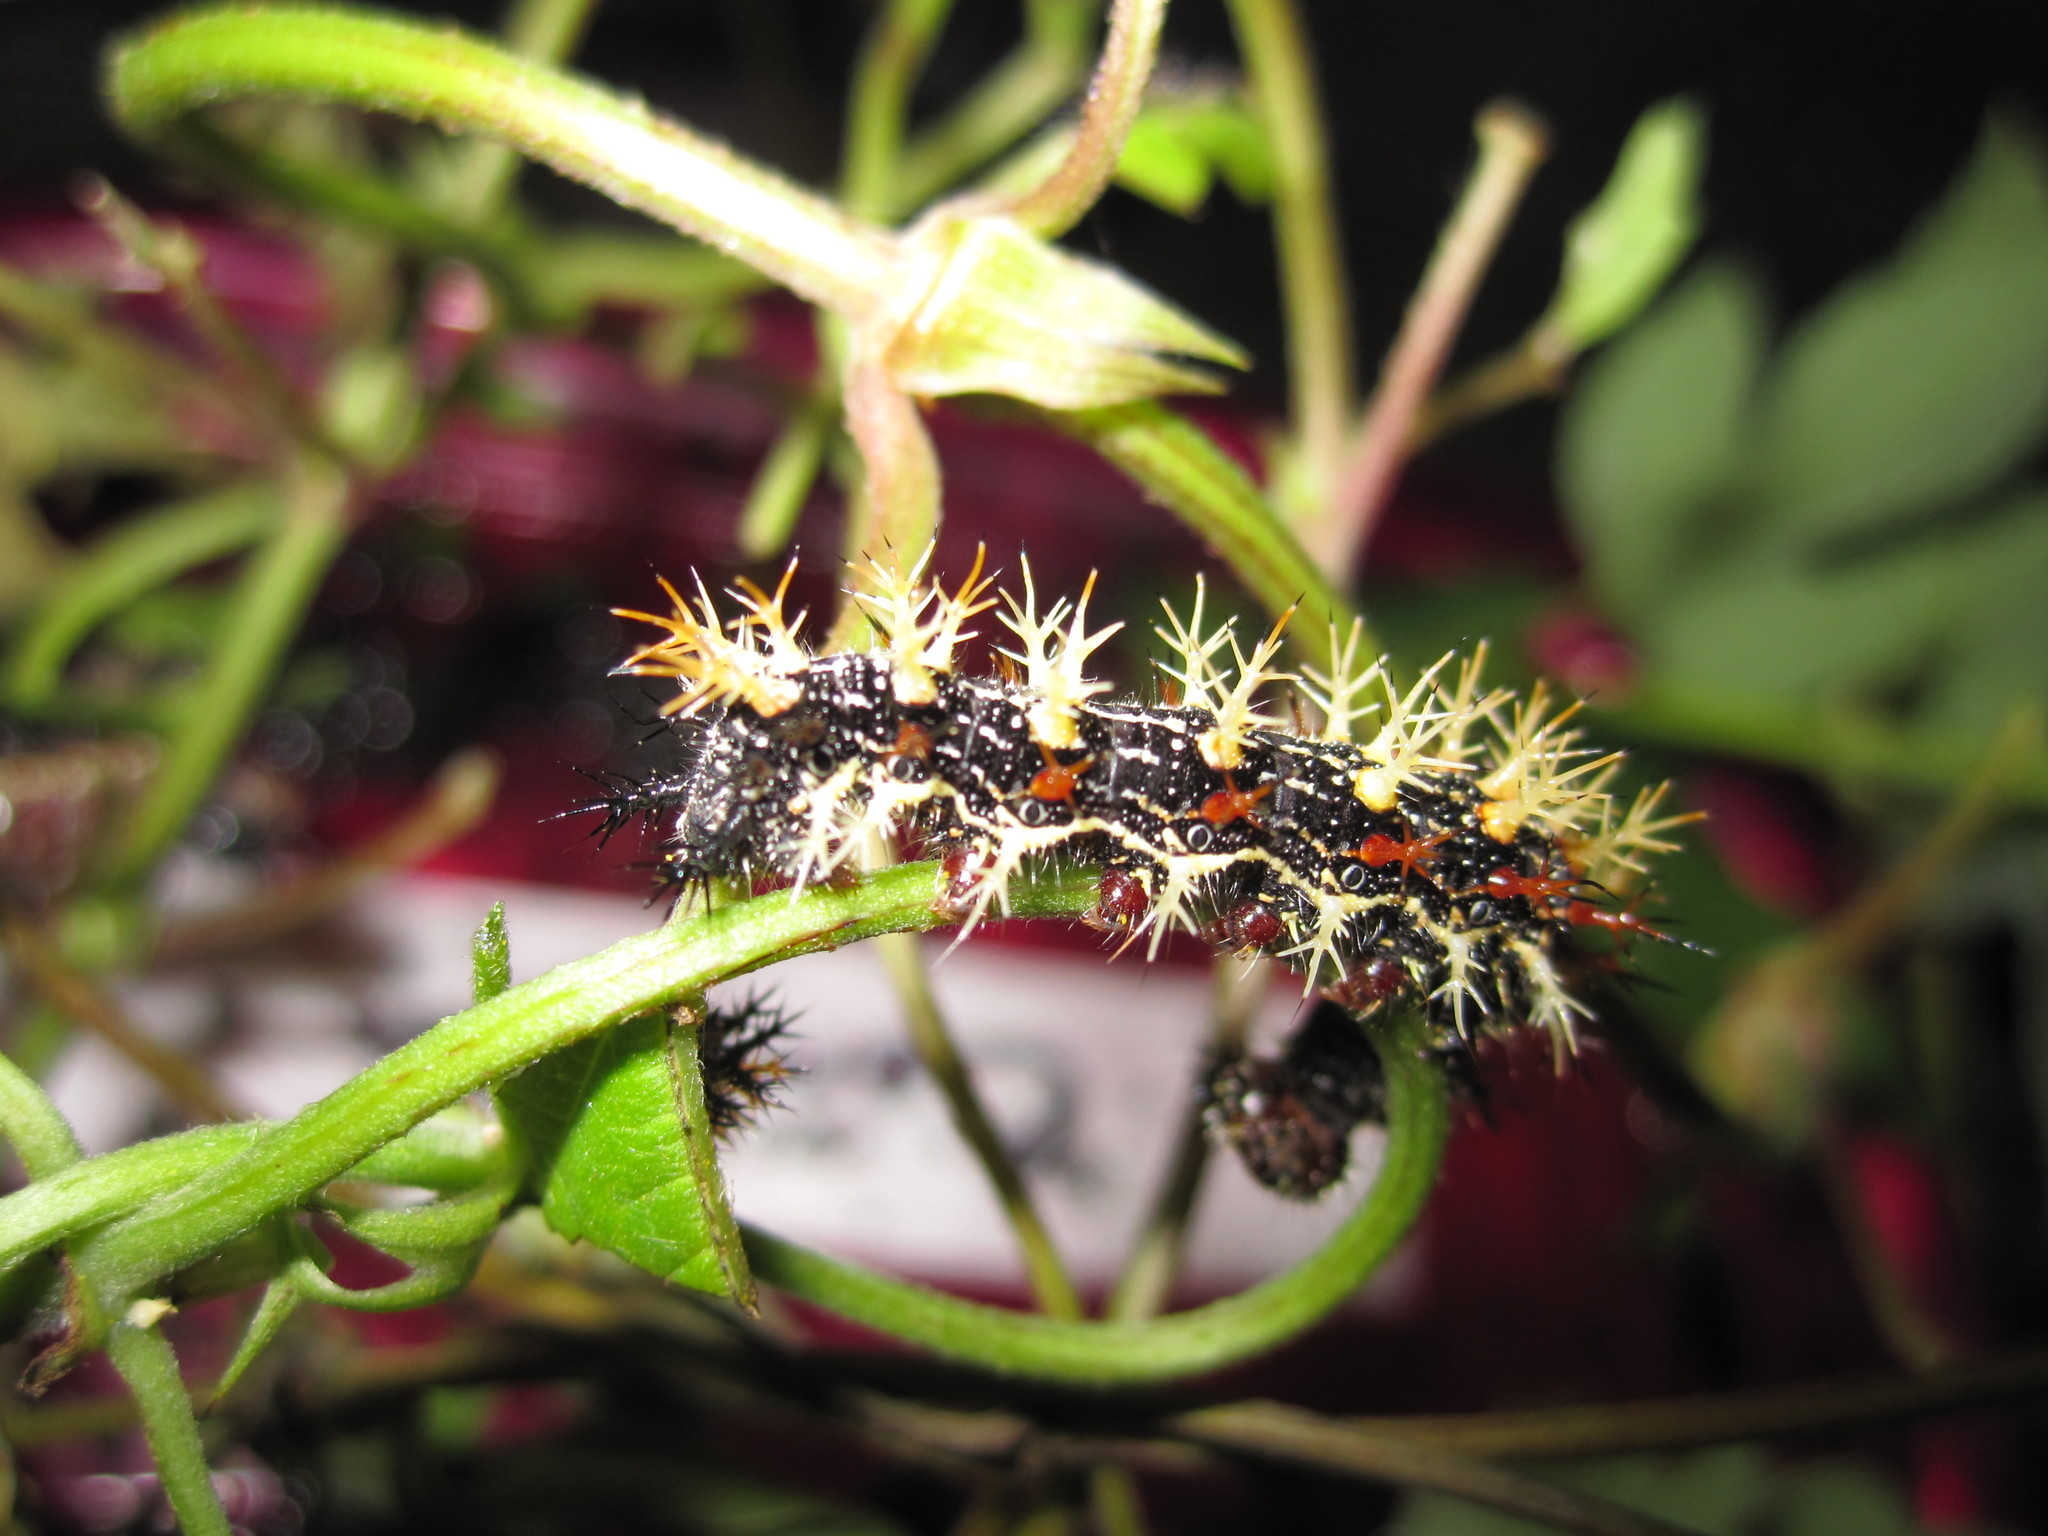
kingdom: Animalia
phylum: Arthropoda
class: Insecta
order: Lepidoptera
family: Nymphalidae
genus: Polygonia
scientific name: Polygonia interrogationis
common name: Question mark
